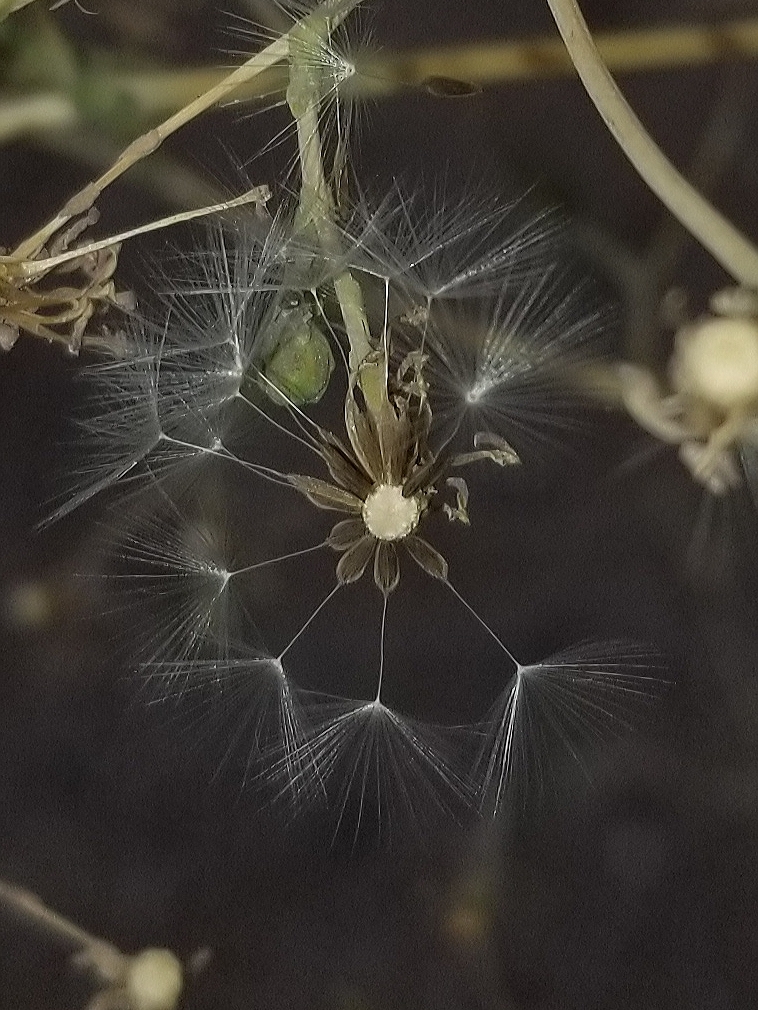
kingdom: Plantae
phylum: Tracheophyta
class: Magnoliopsida
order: Asterales
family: Asteraceae
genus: Lactuca
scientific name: Lactuca serriola
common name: Prickly lettuce
